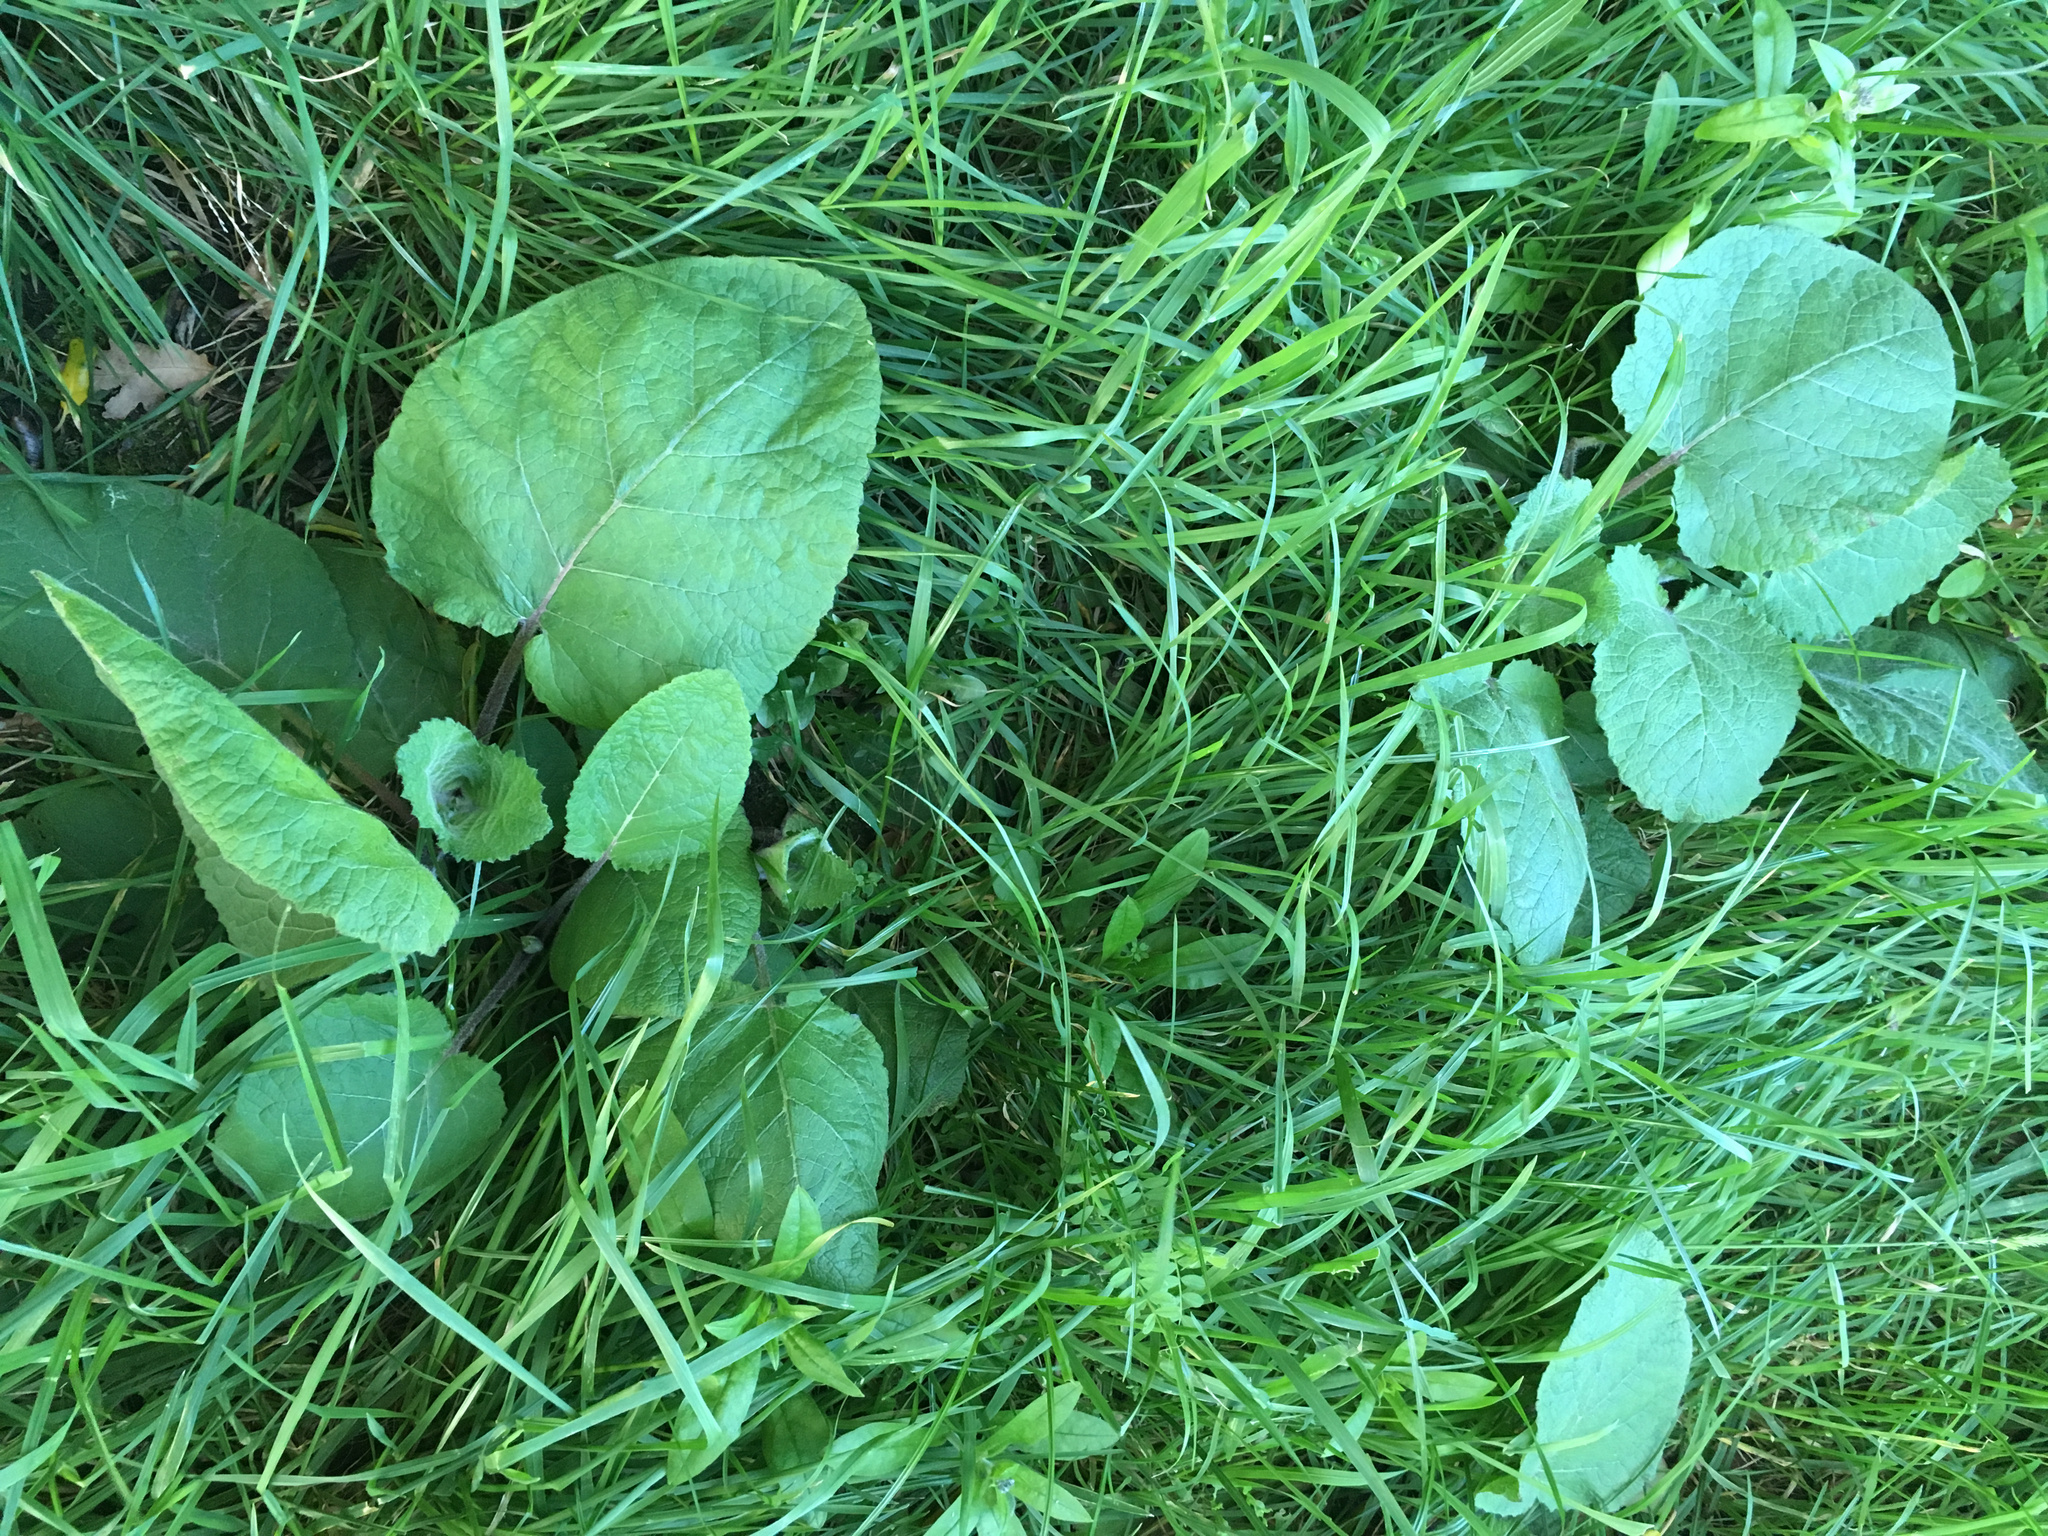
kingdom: Plantae
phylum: Tracheophyta
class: Magnoliopsida
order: Asterales
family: Asteraceae
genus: Arctium
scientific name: Arctium minus
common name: Lesser burdock
